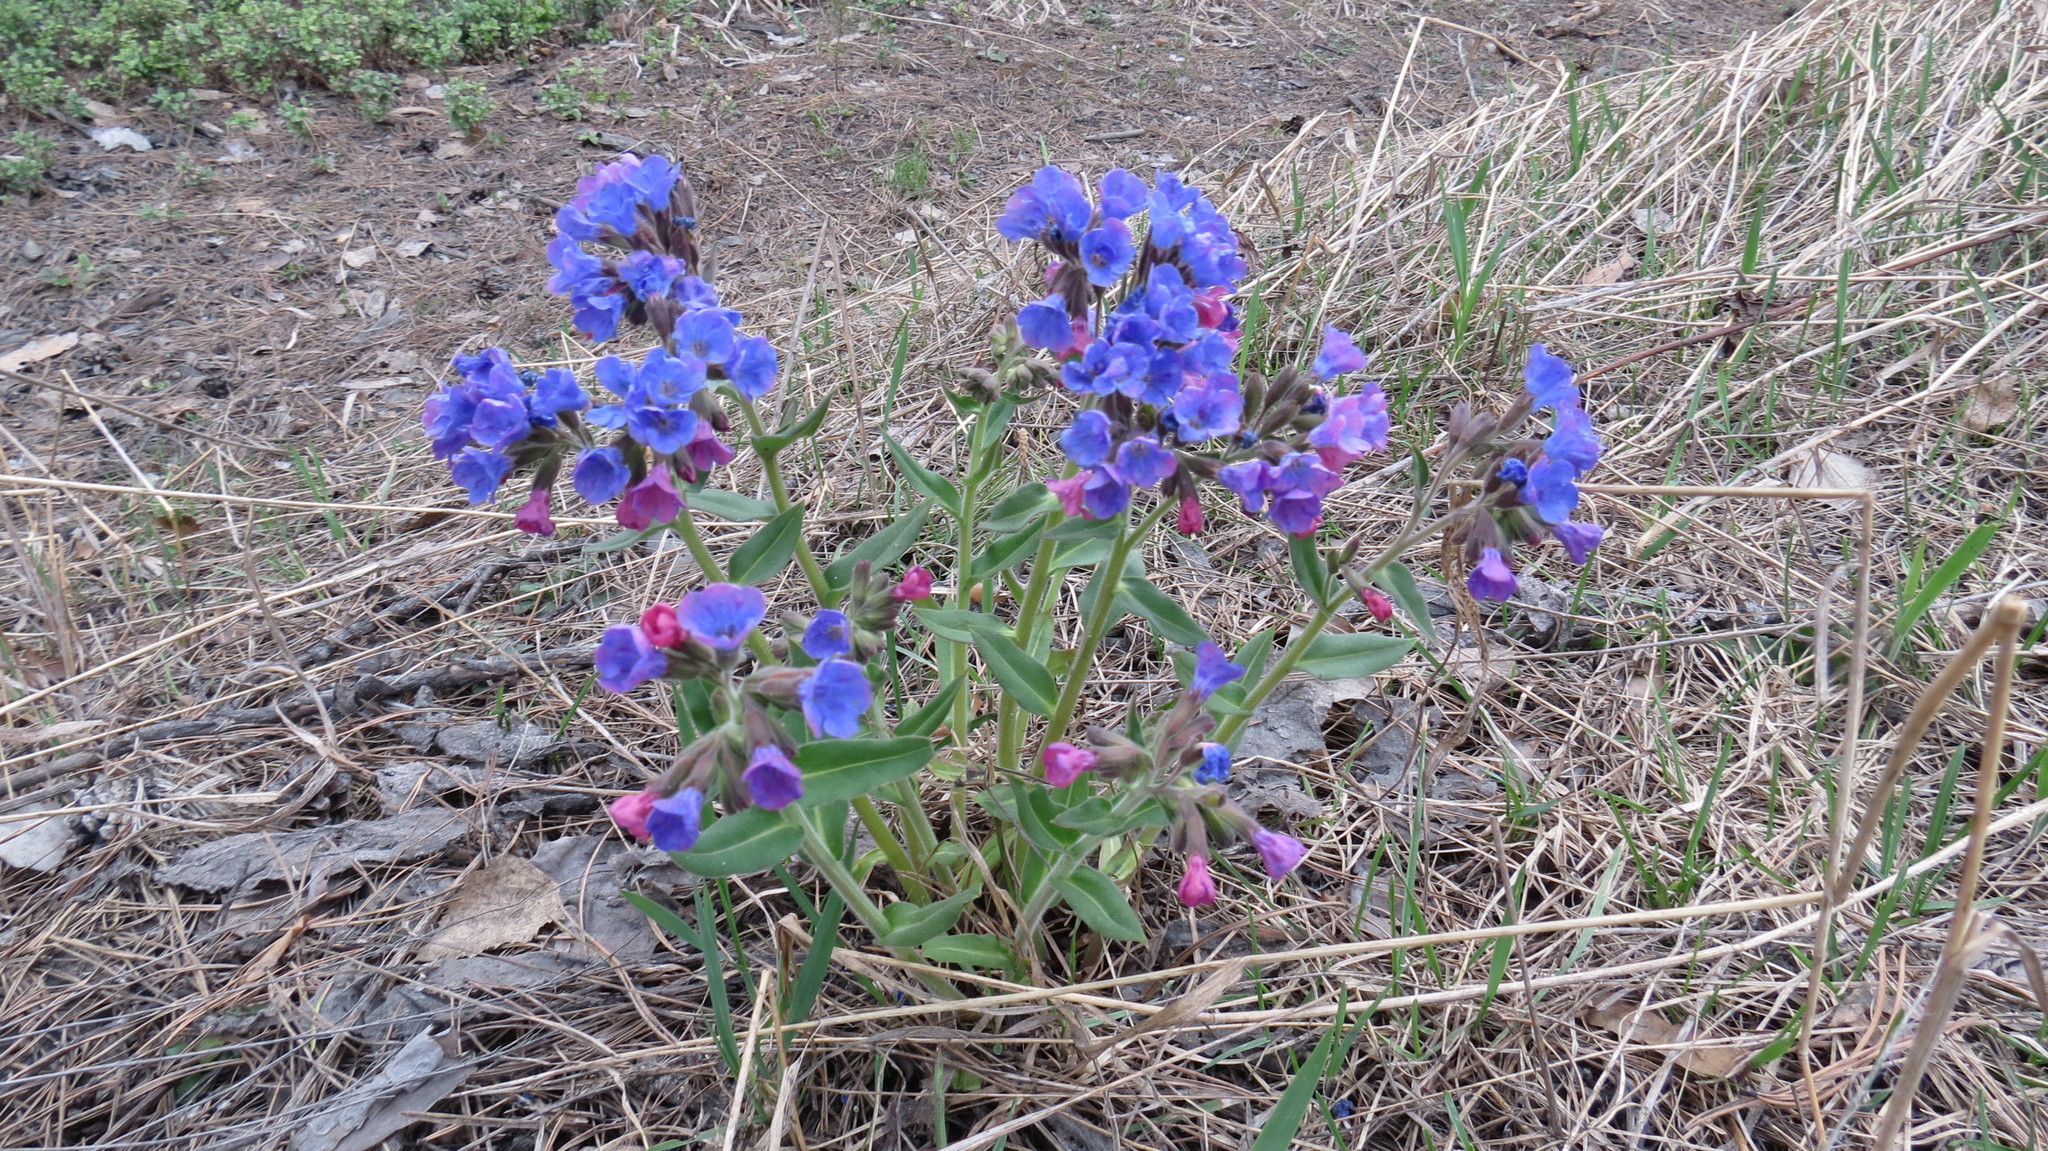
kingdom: Plantae
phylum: Tracheophyta
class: Magnoliopsida
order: Boraginales
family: Boraginaceae
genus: Pulmonaria
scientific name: Pulmonaria mollis
